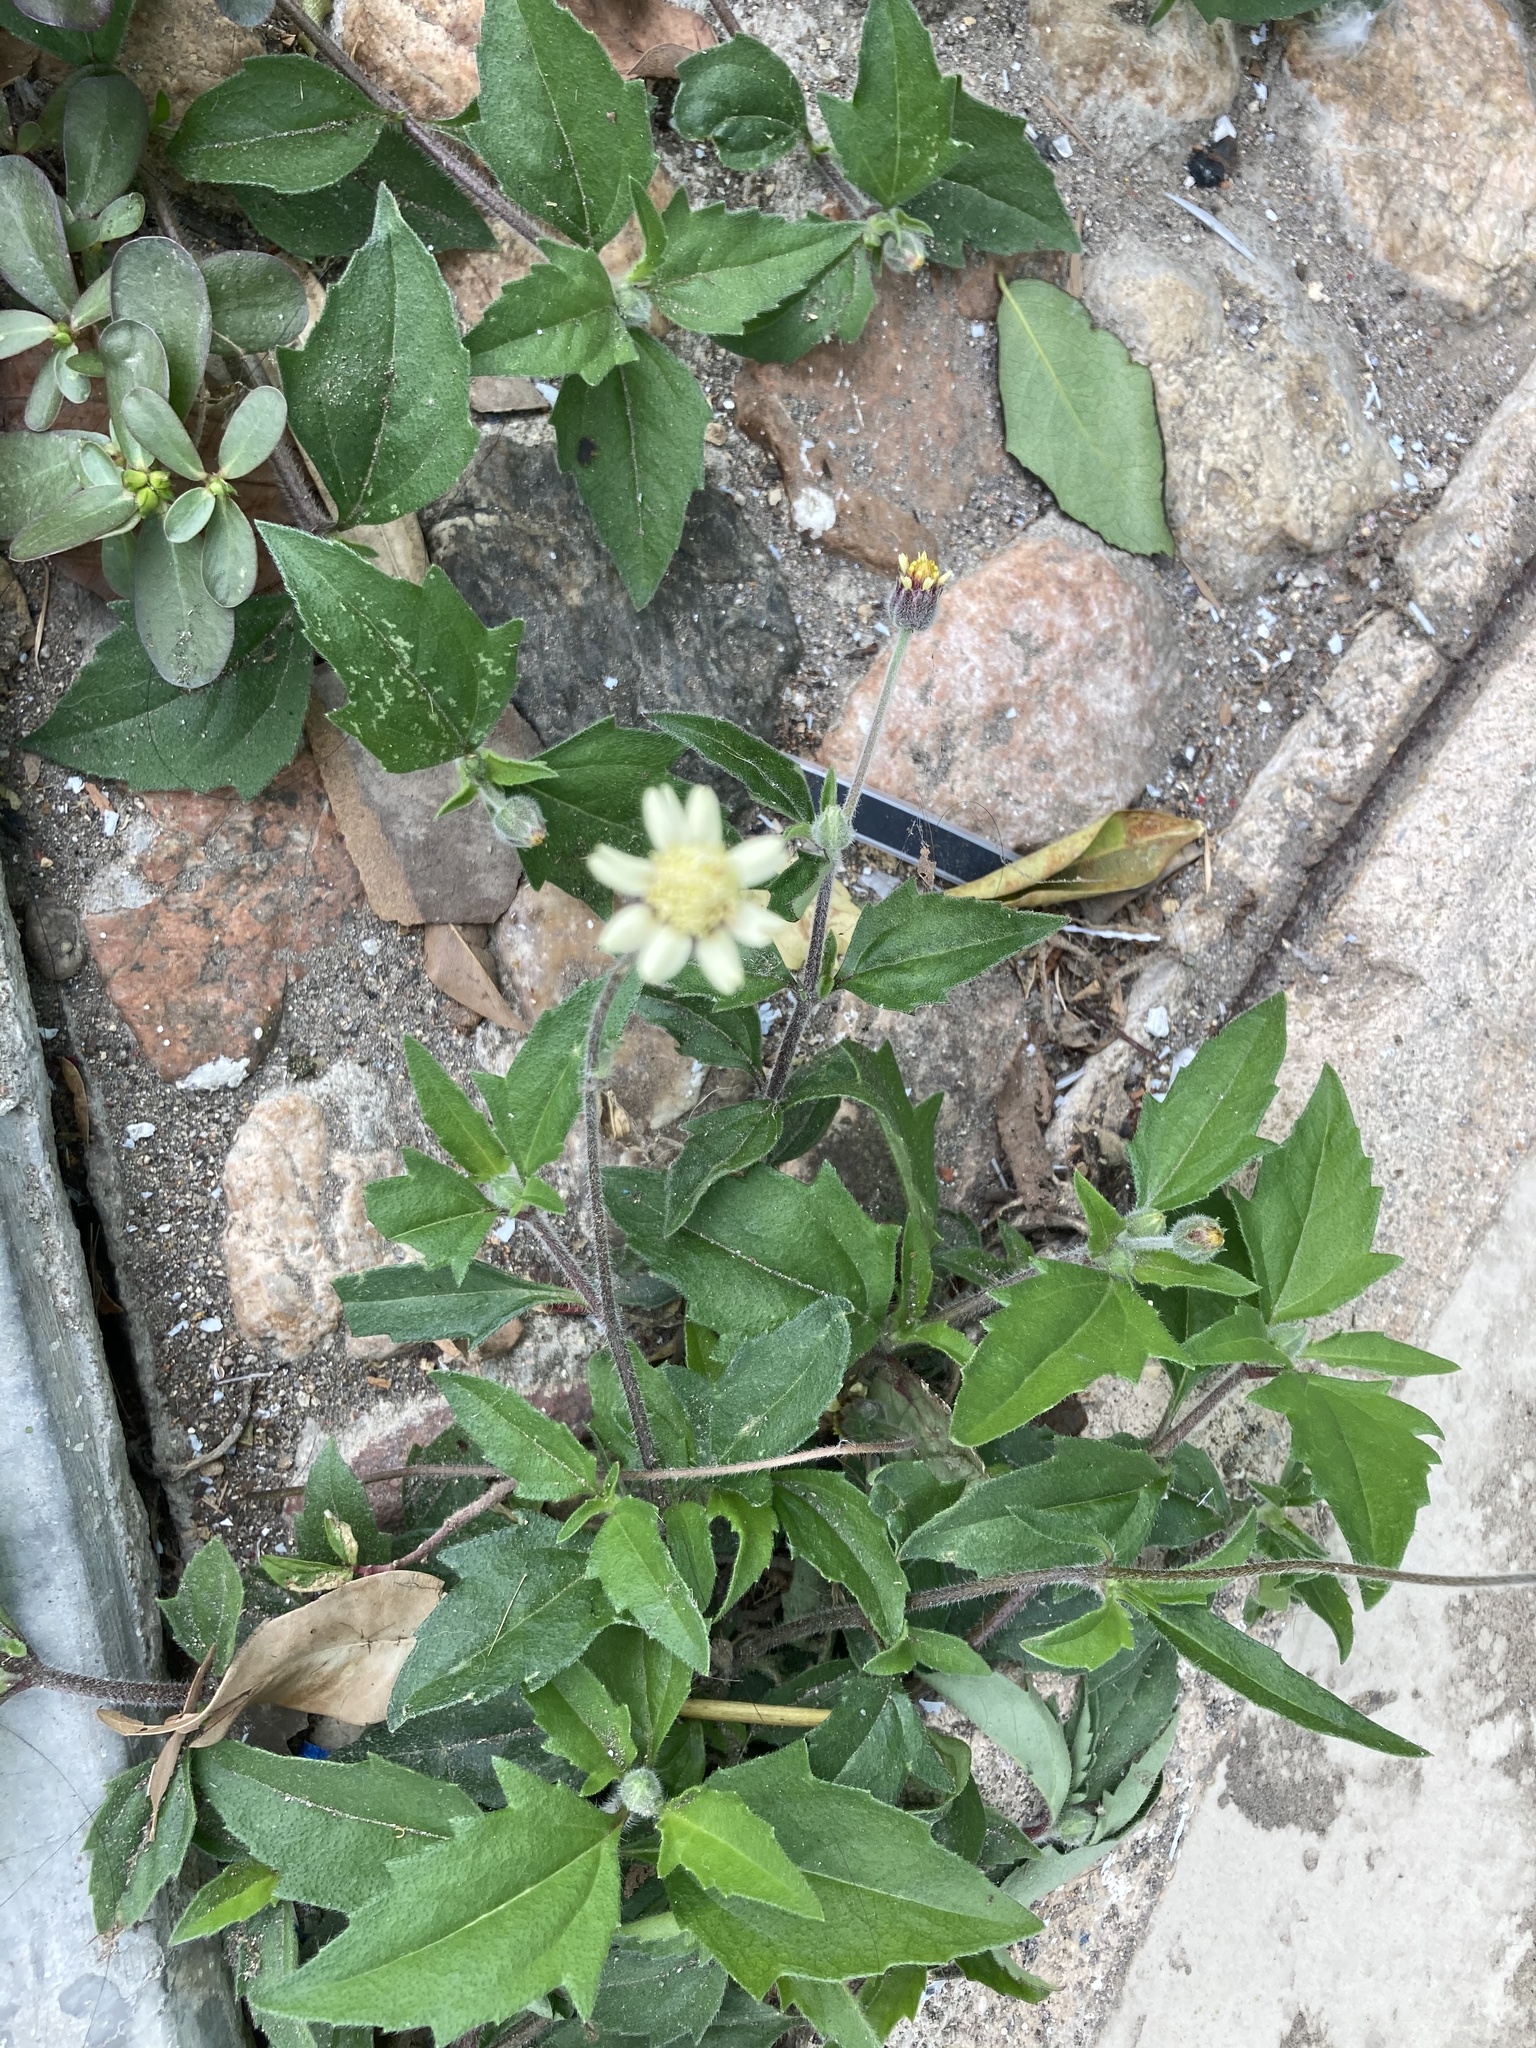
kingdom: Plantae
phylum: Tracheophyta
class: Magnoliopsida
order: Asterales
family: Asteraceae
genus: Tridax
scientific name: Tridax procumbens
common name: Coatbuttons
